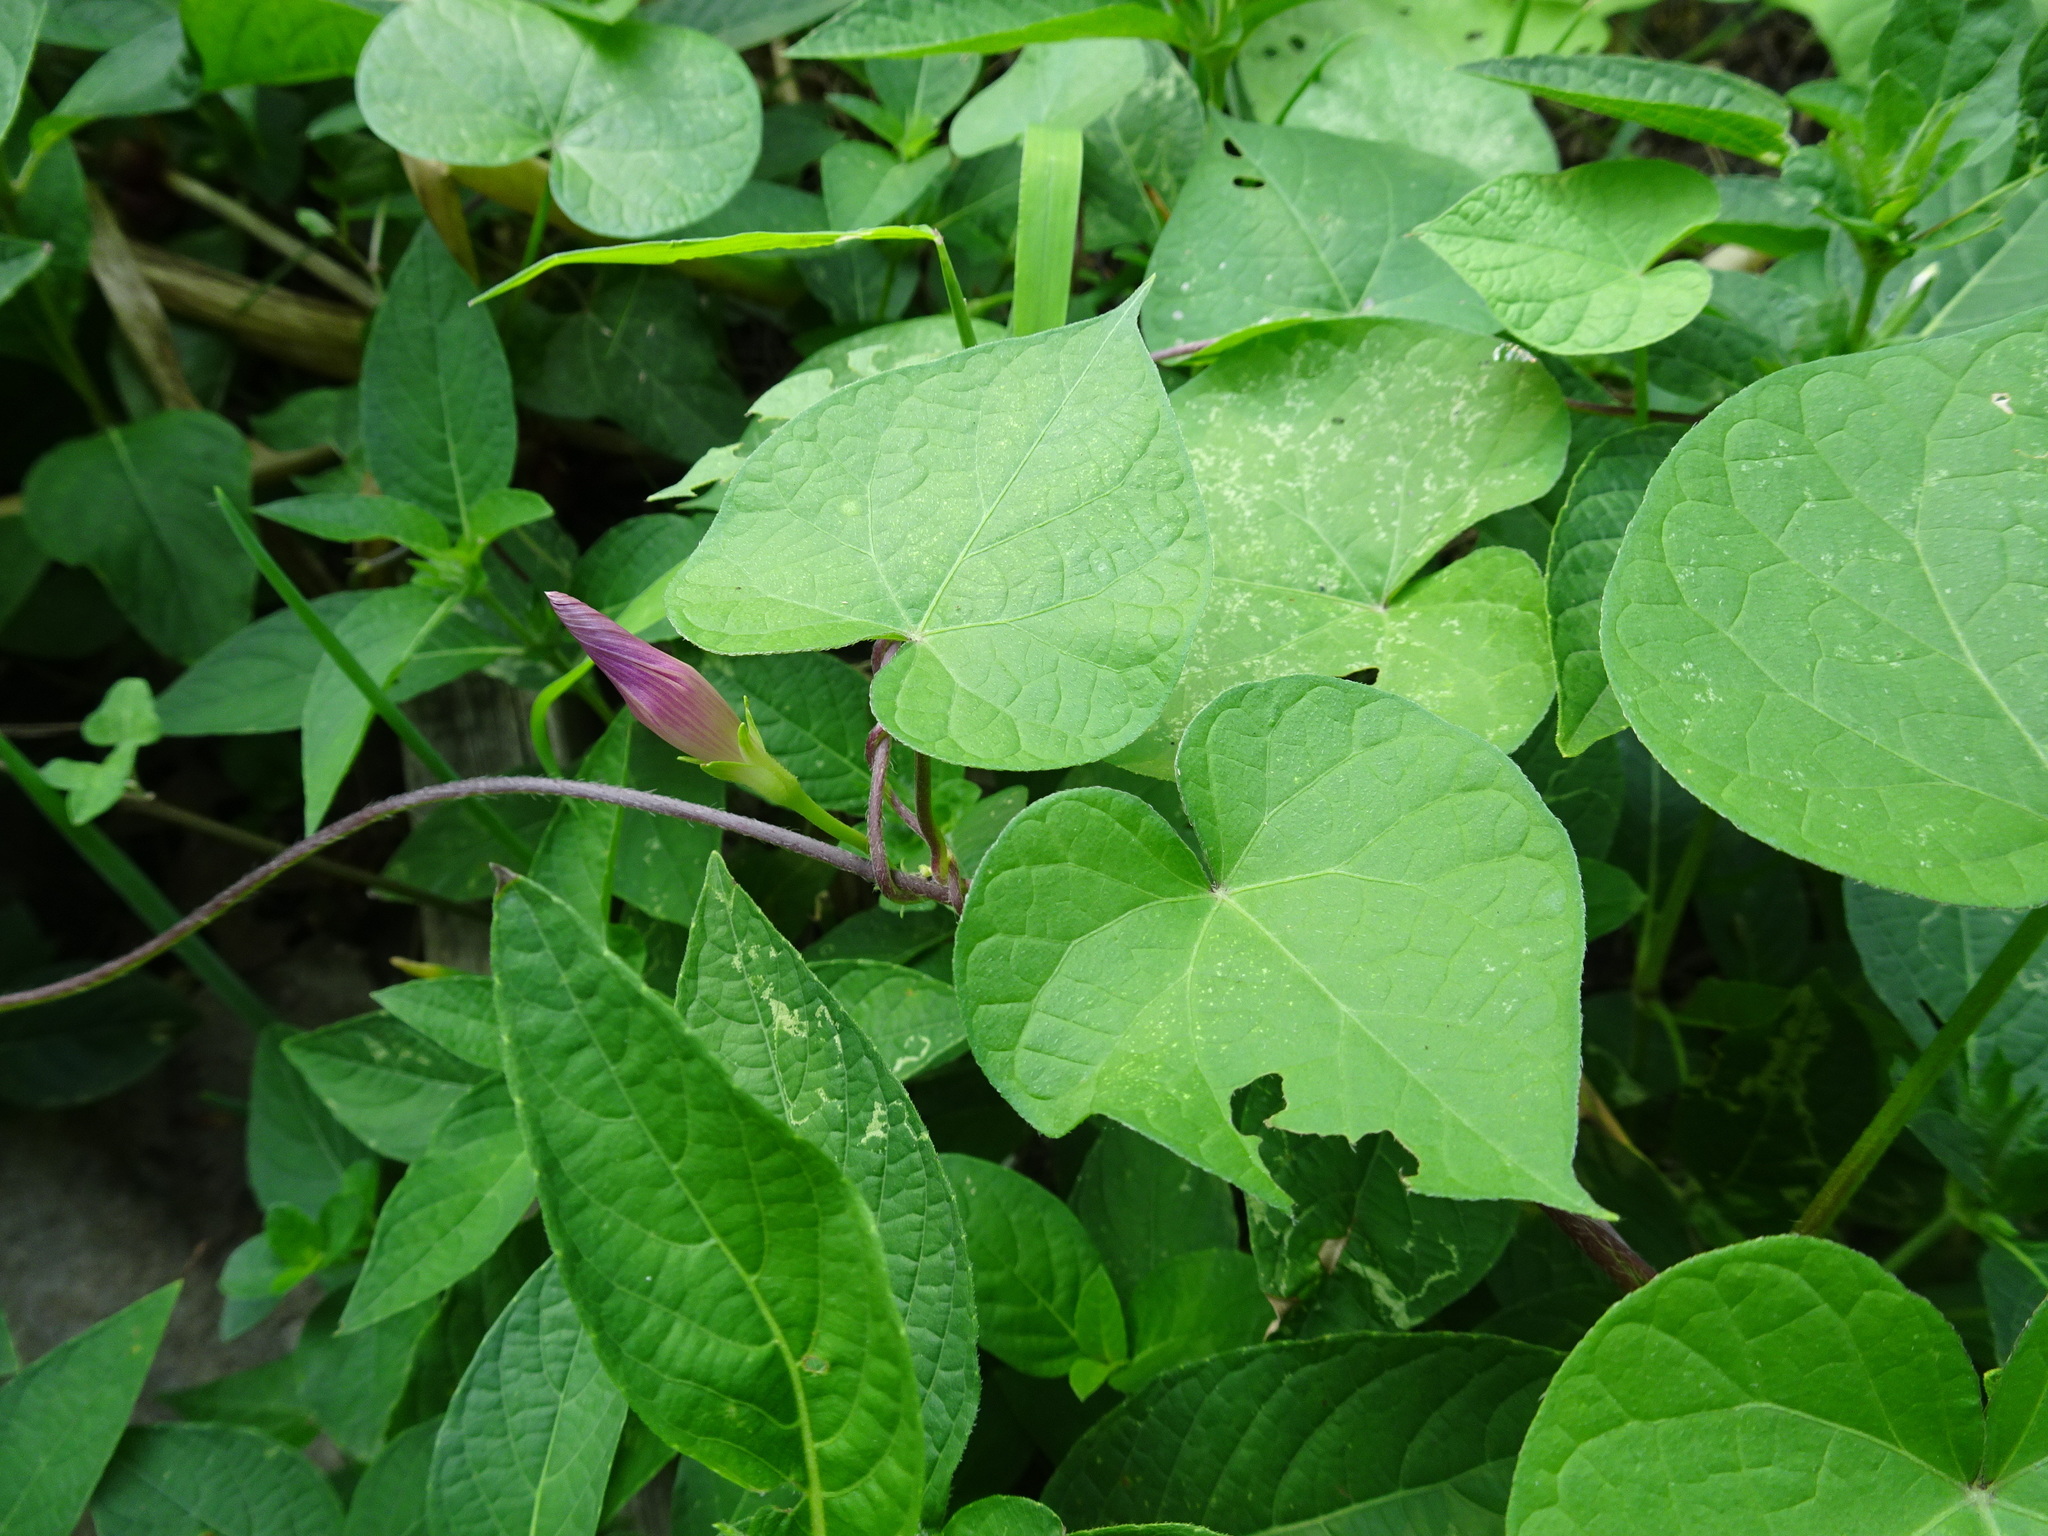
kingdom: Plantae
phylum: Tracheophyta
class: Magnoliopsida
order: Solanales
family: Convolvulaceae
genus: Ipomoea
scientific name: Ipomoea purpurea
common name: Common morning-glory
